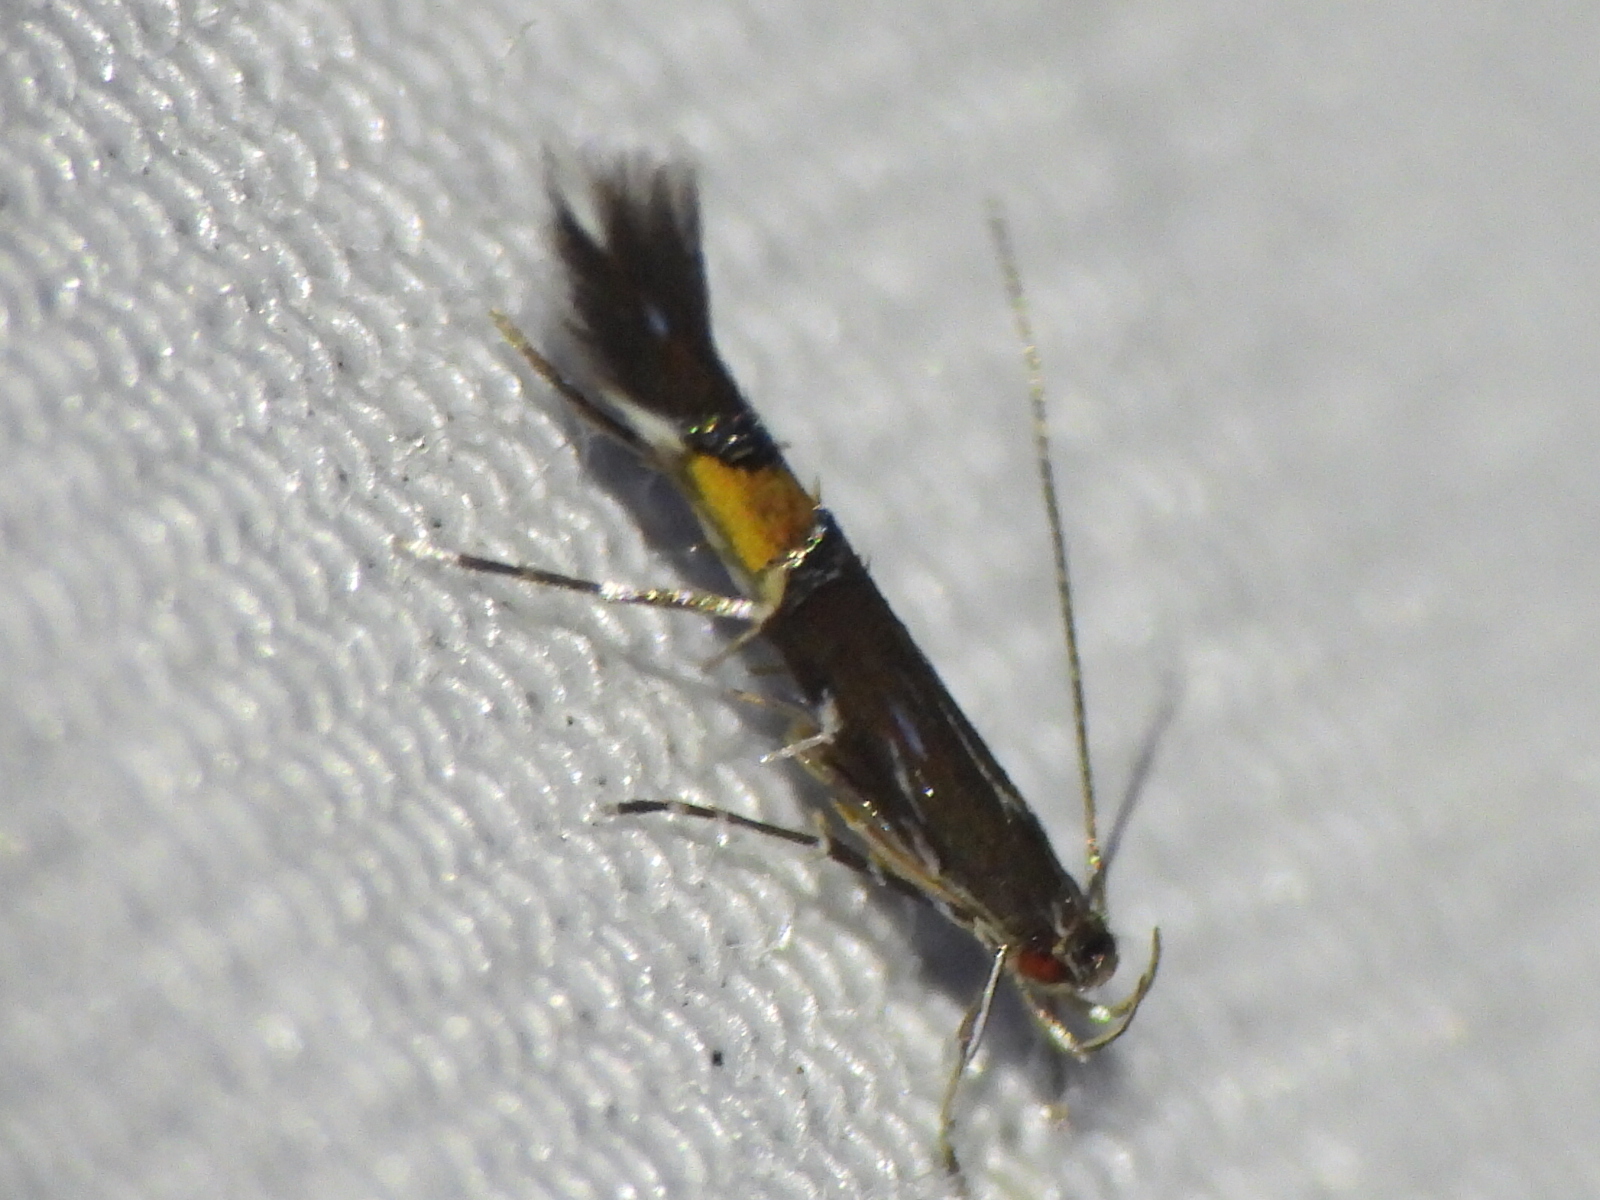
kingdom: Animalia
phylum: Arthropoda
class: Insecta
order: Lepidoptera
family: Cosmopterigidae
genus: Cosmopterix
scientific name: Cosmopterix pulchrimella
